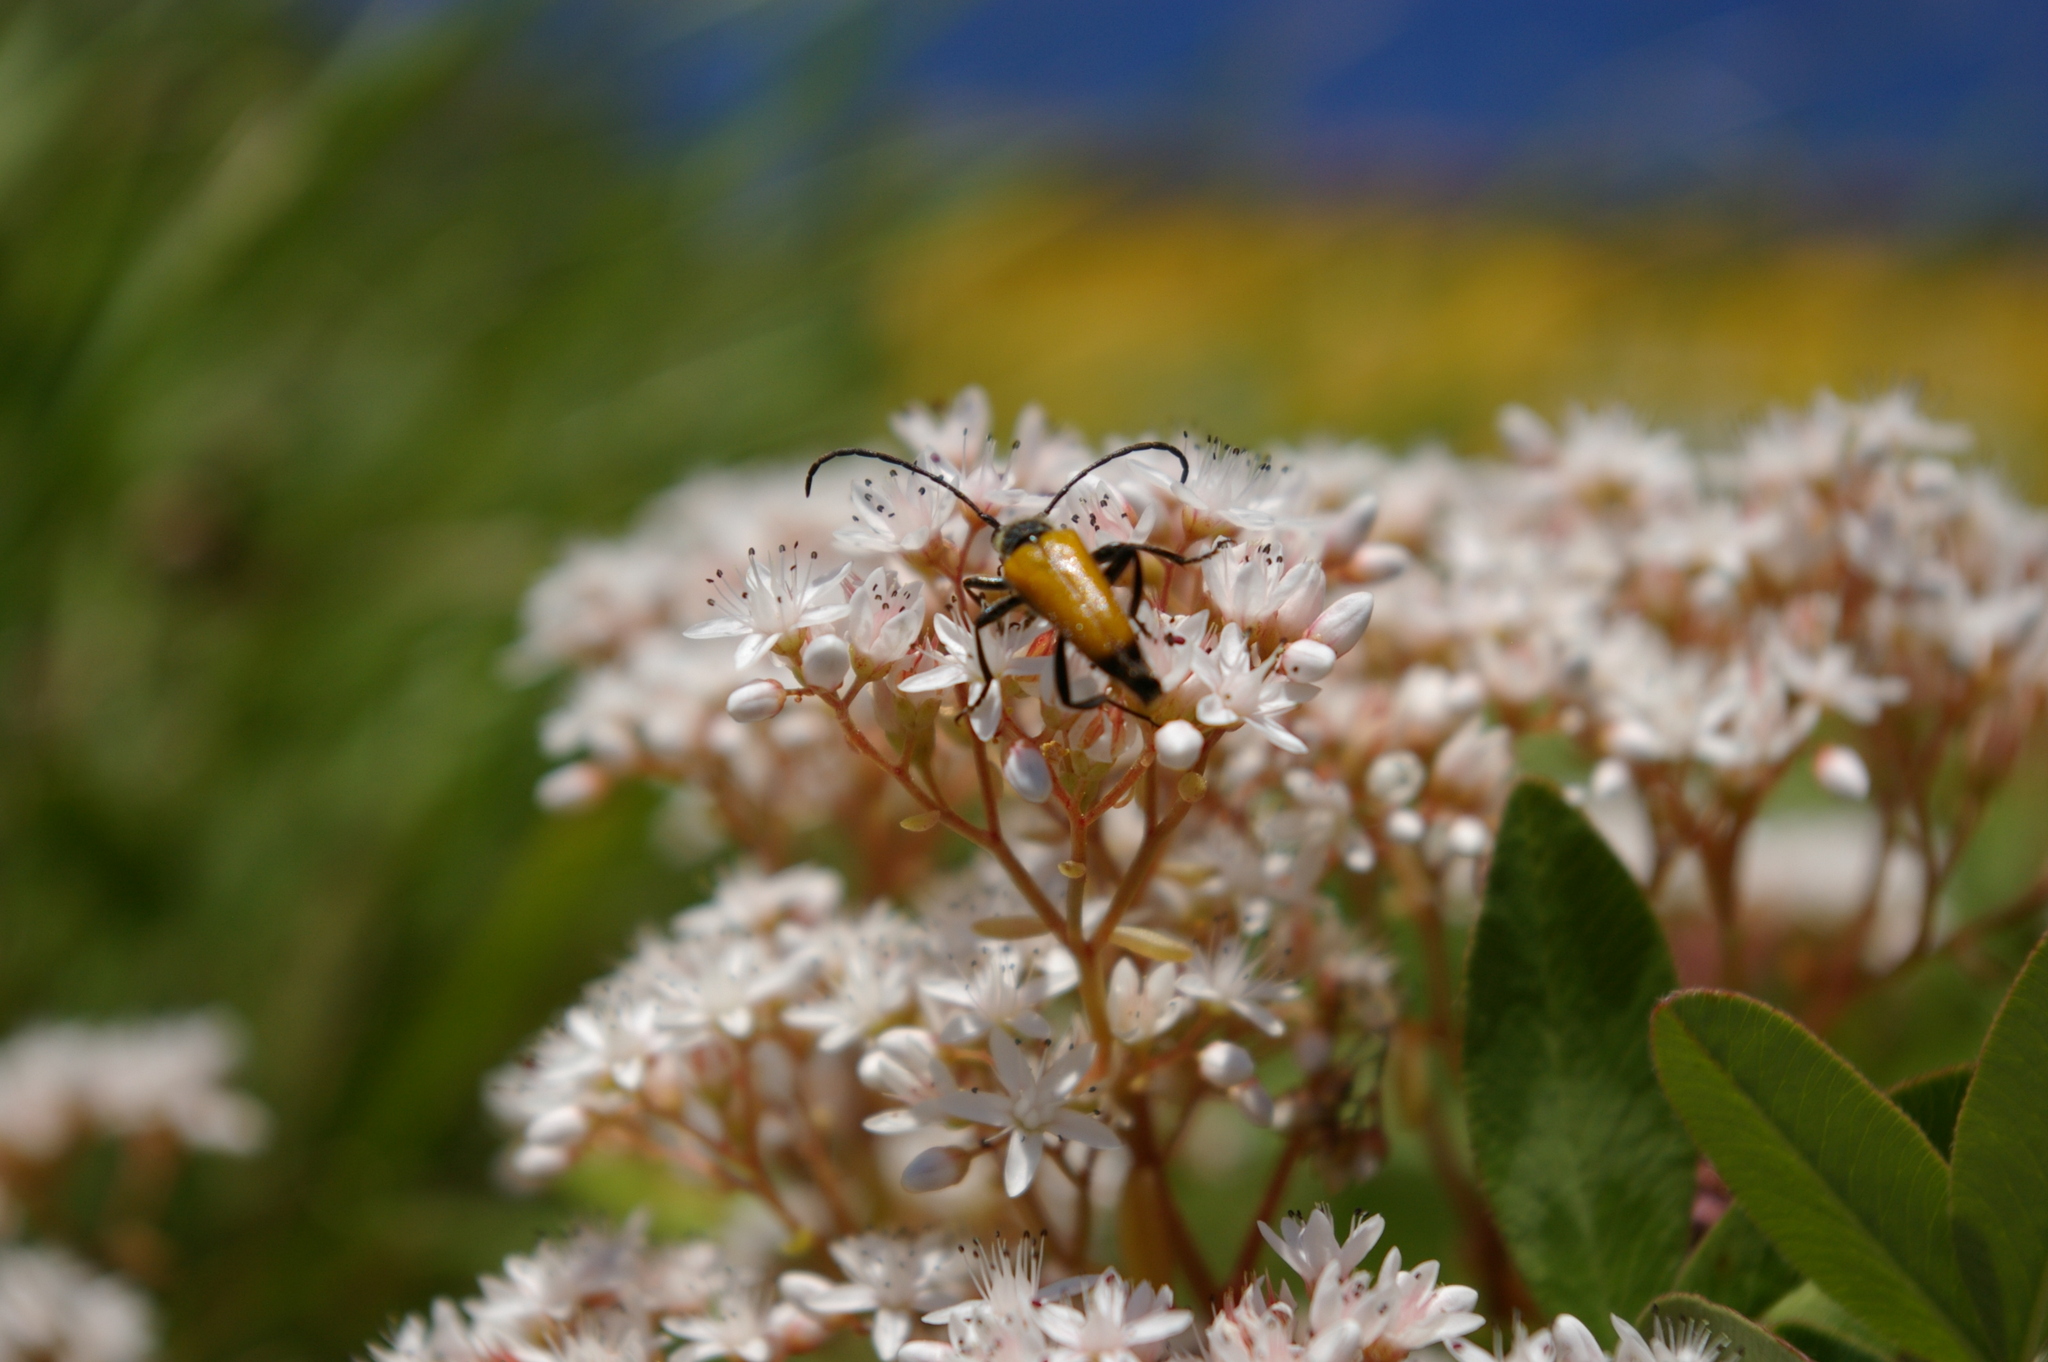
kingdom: Animalia
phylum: Arthropoda
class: Insecta
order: Coleoptera
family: Cerambycidae
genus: Paracorymbia
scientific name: Paracorymbia fulva
